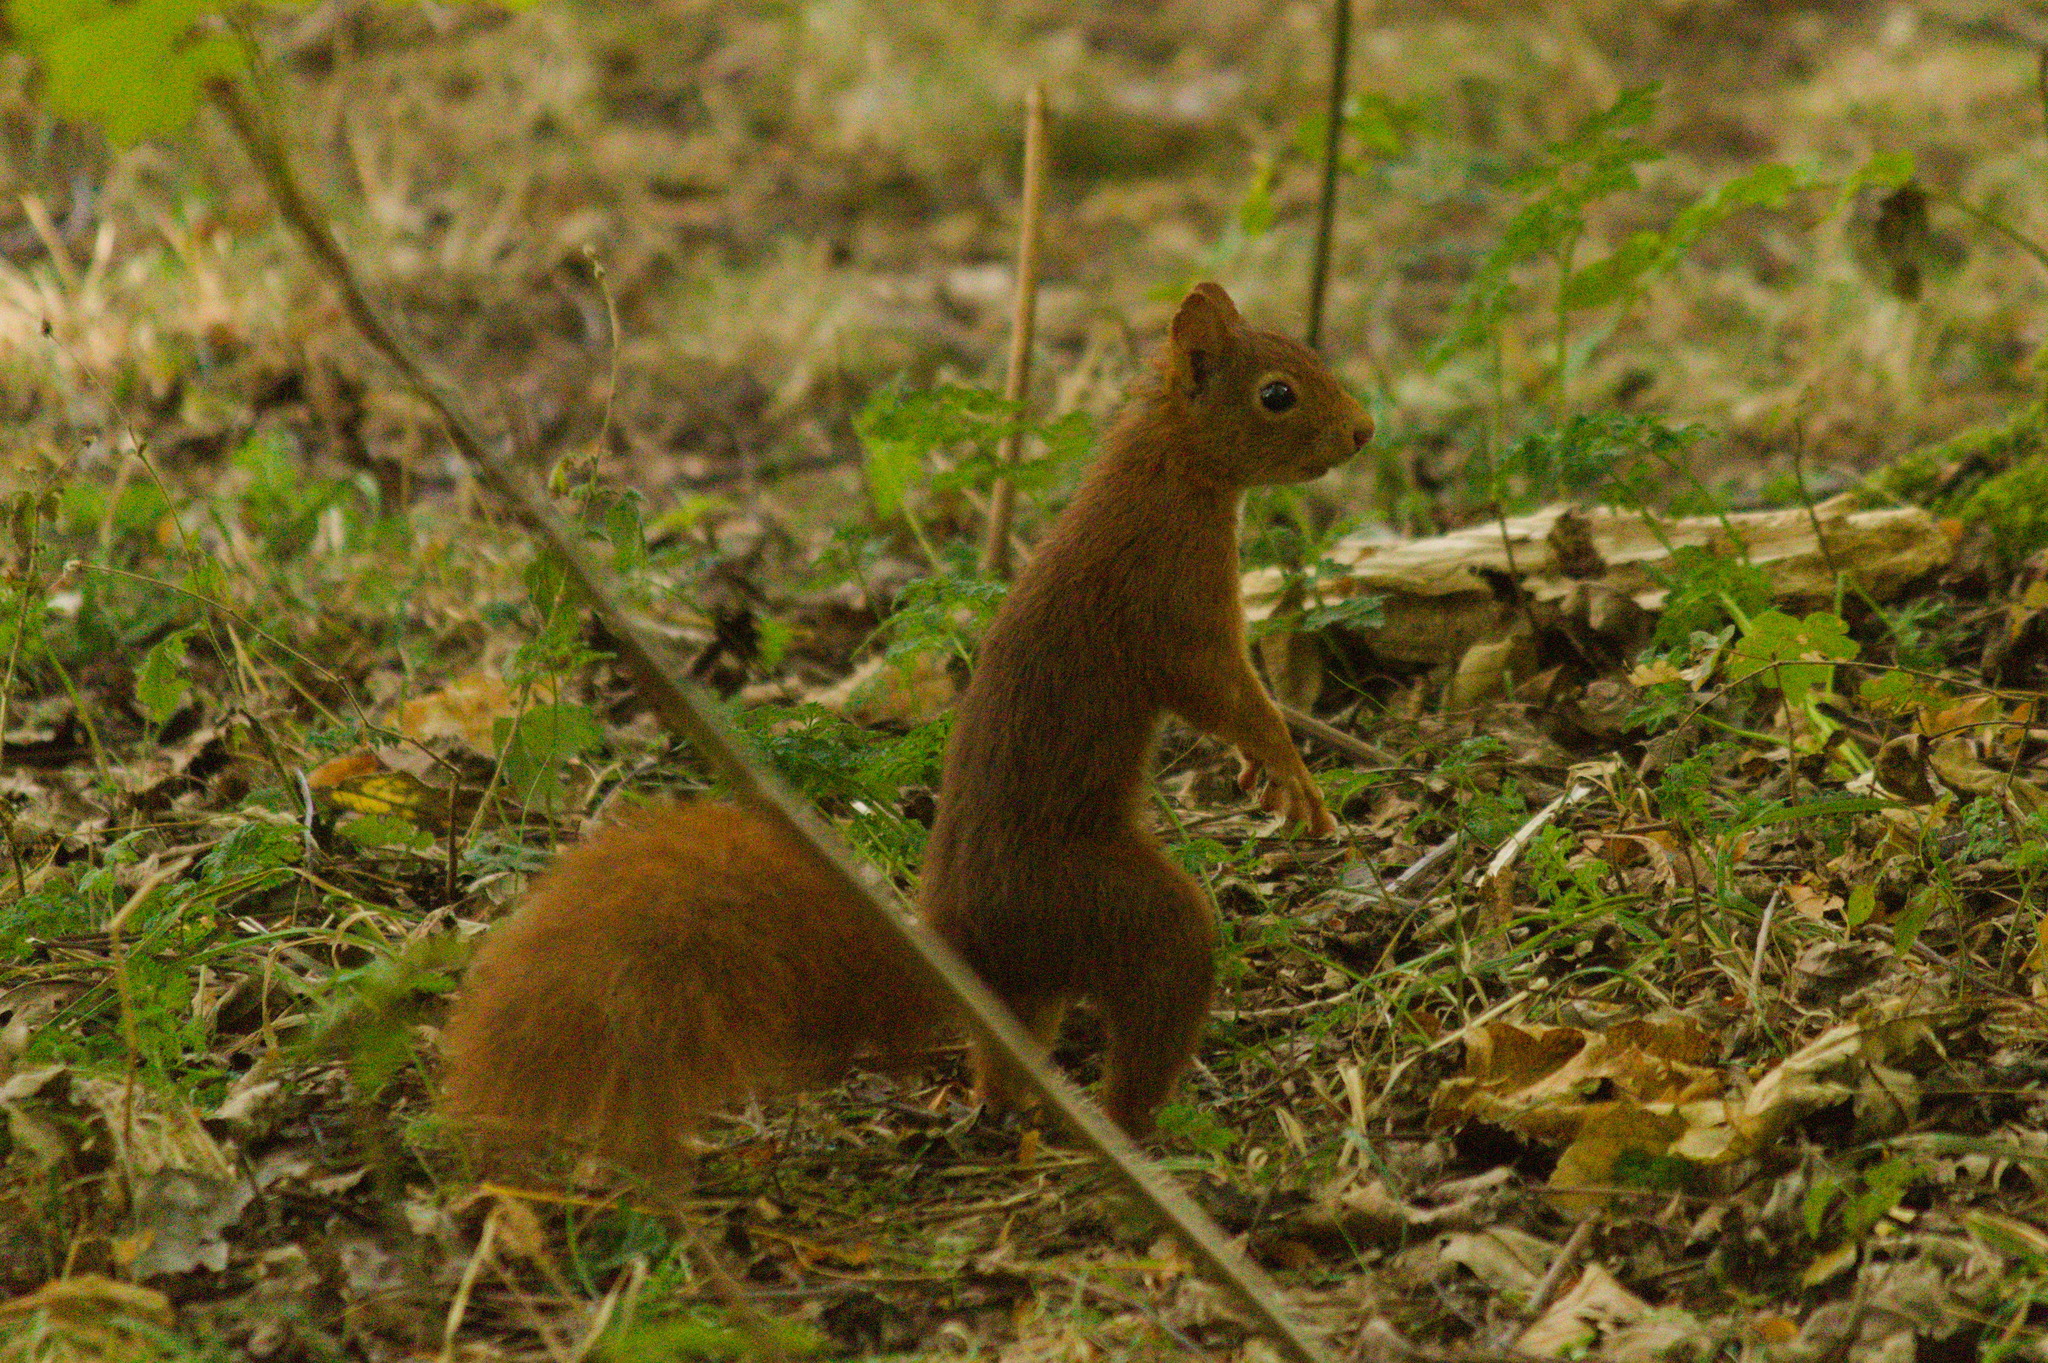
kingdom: Animalia
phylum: Chordata
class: Mammalia
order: Rodentia
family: Sciuridae
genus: Sciurus
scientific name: Sciurus vulgaris
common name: Eurasian red squirrel
